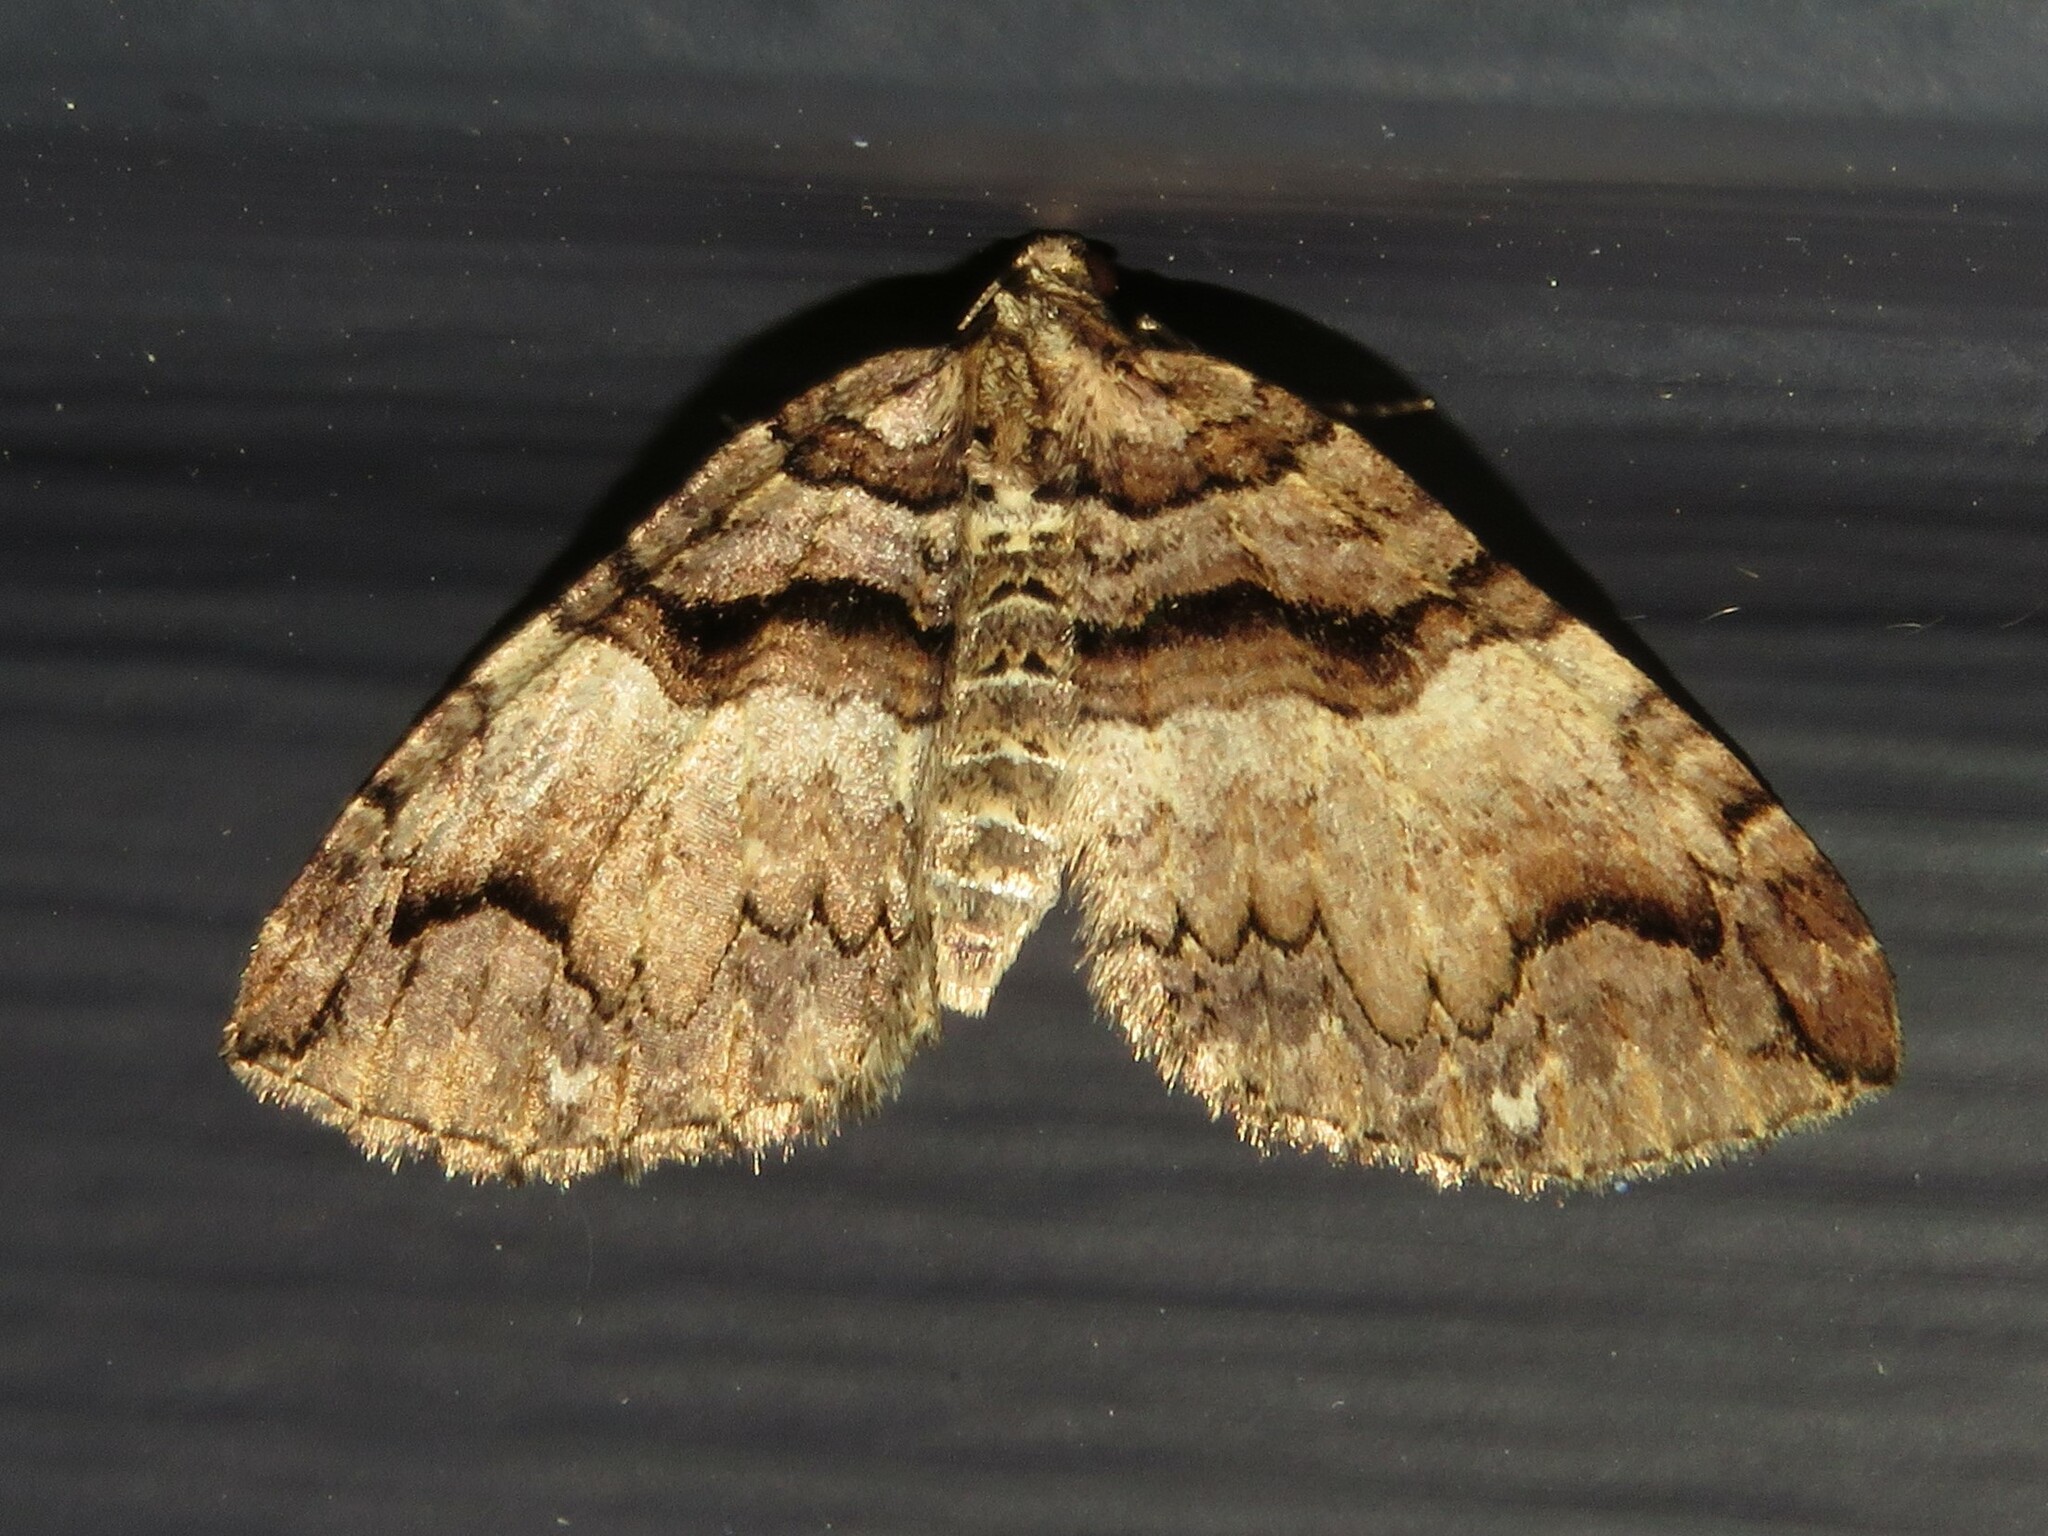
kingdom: Animalia
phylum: Arthropoda
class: Insecta
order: Lepidoptera
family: Geometridae
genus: Anticlea
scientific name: Anticlea vasiliata
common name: Variable carpet
